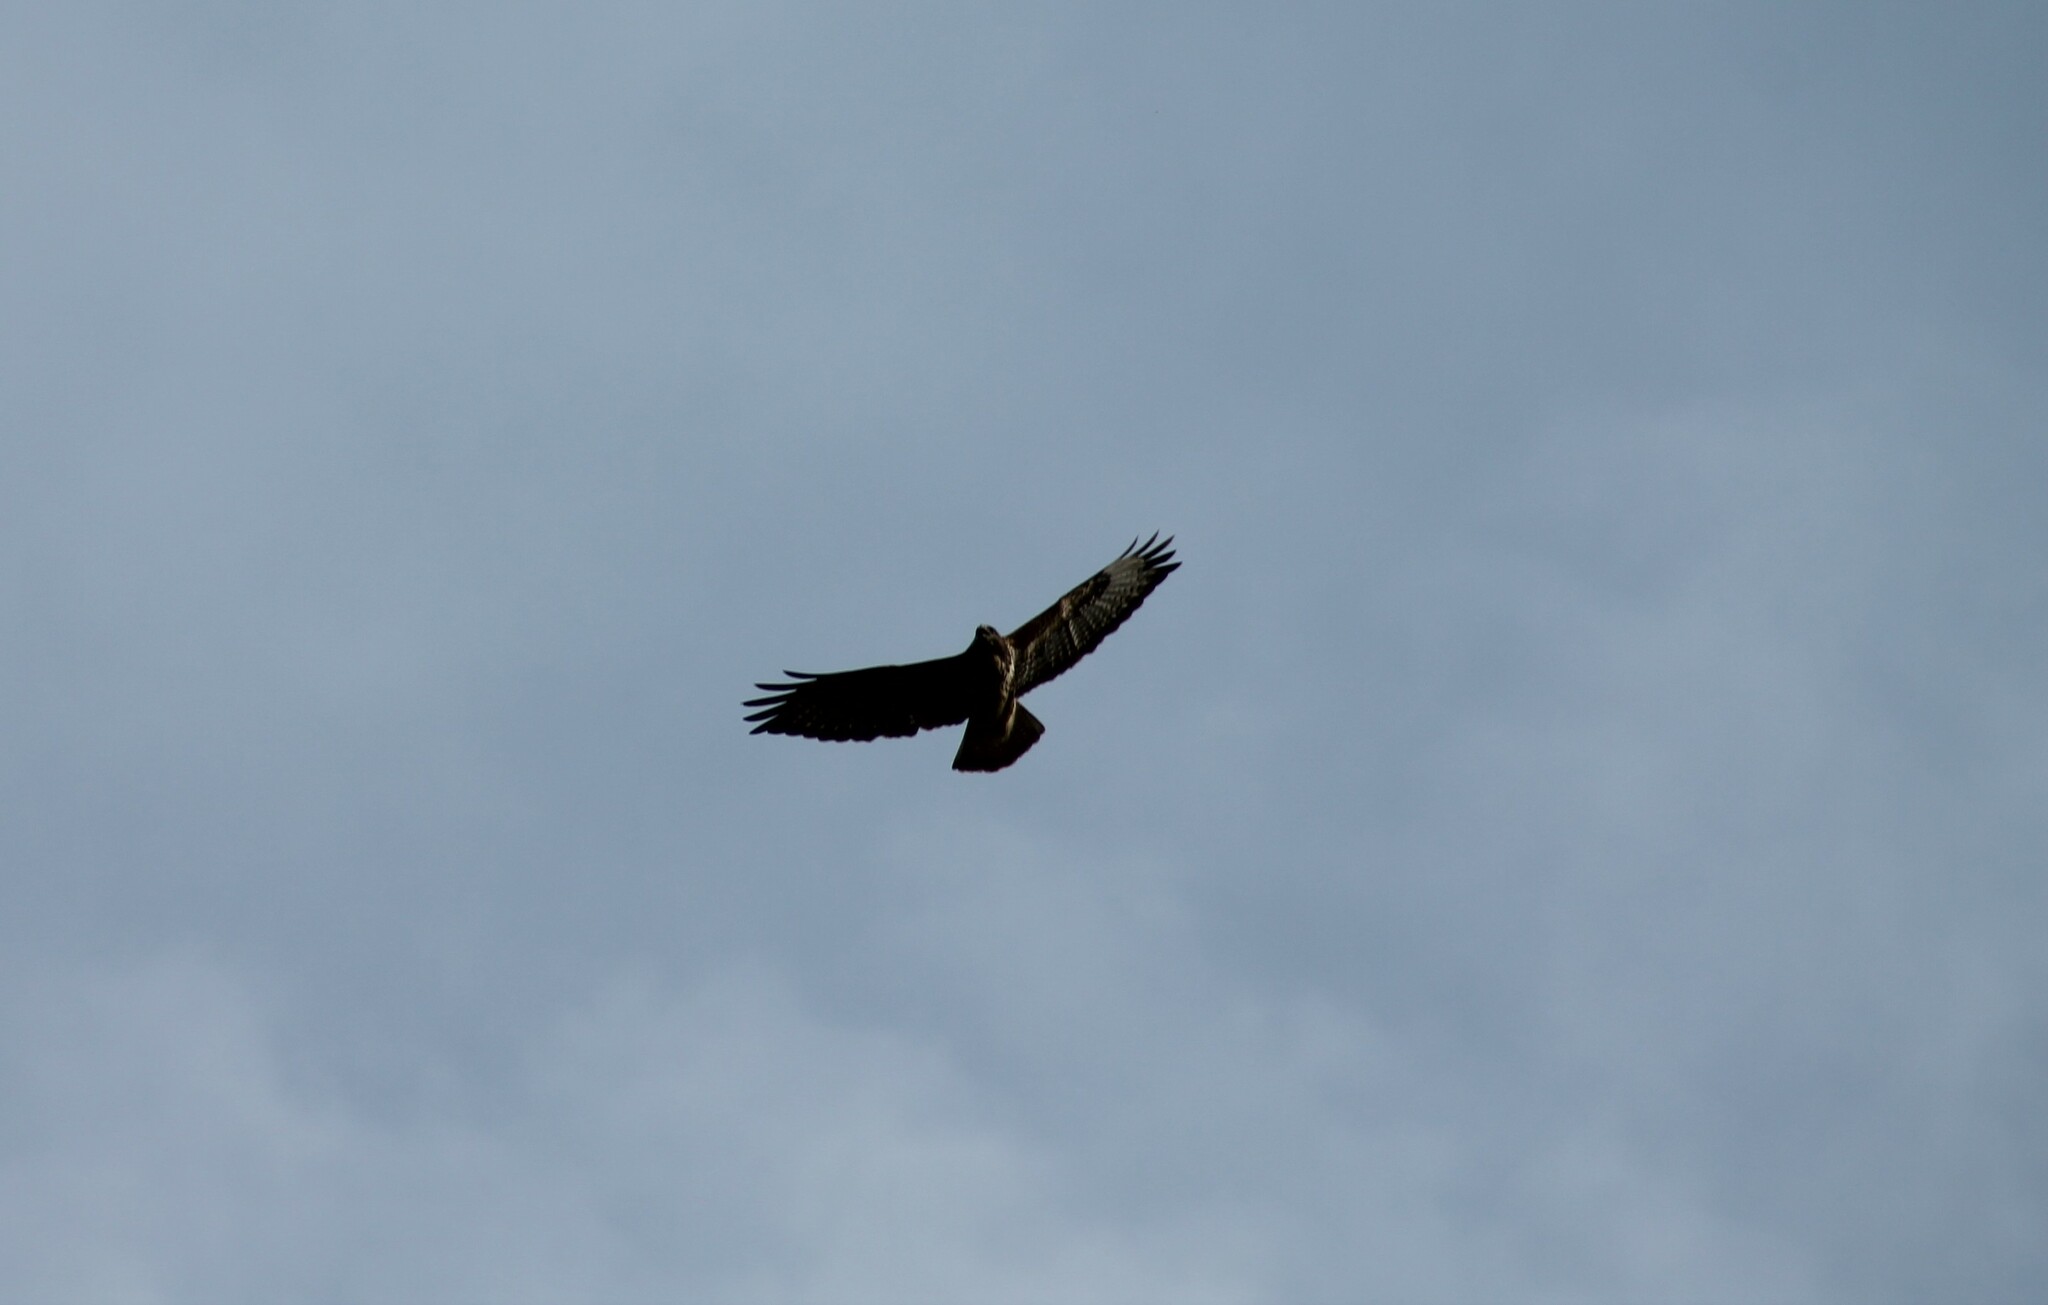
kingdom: Animalia
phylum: Chordata
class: Aves
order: Accipitriformes
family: Accipitridae
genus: Buteo
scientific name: Buteo buteo
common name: Common buzzard
